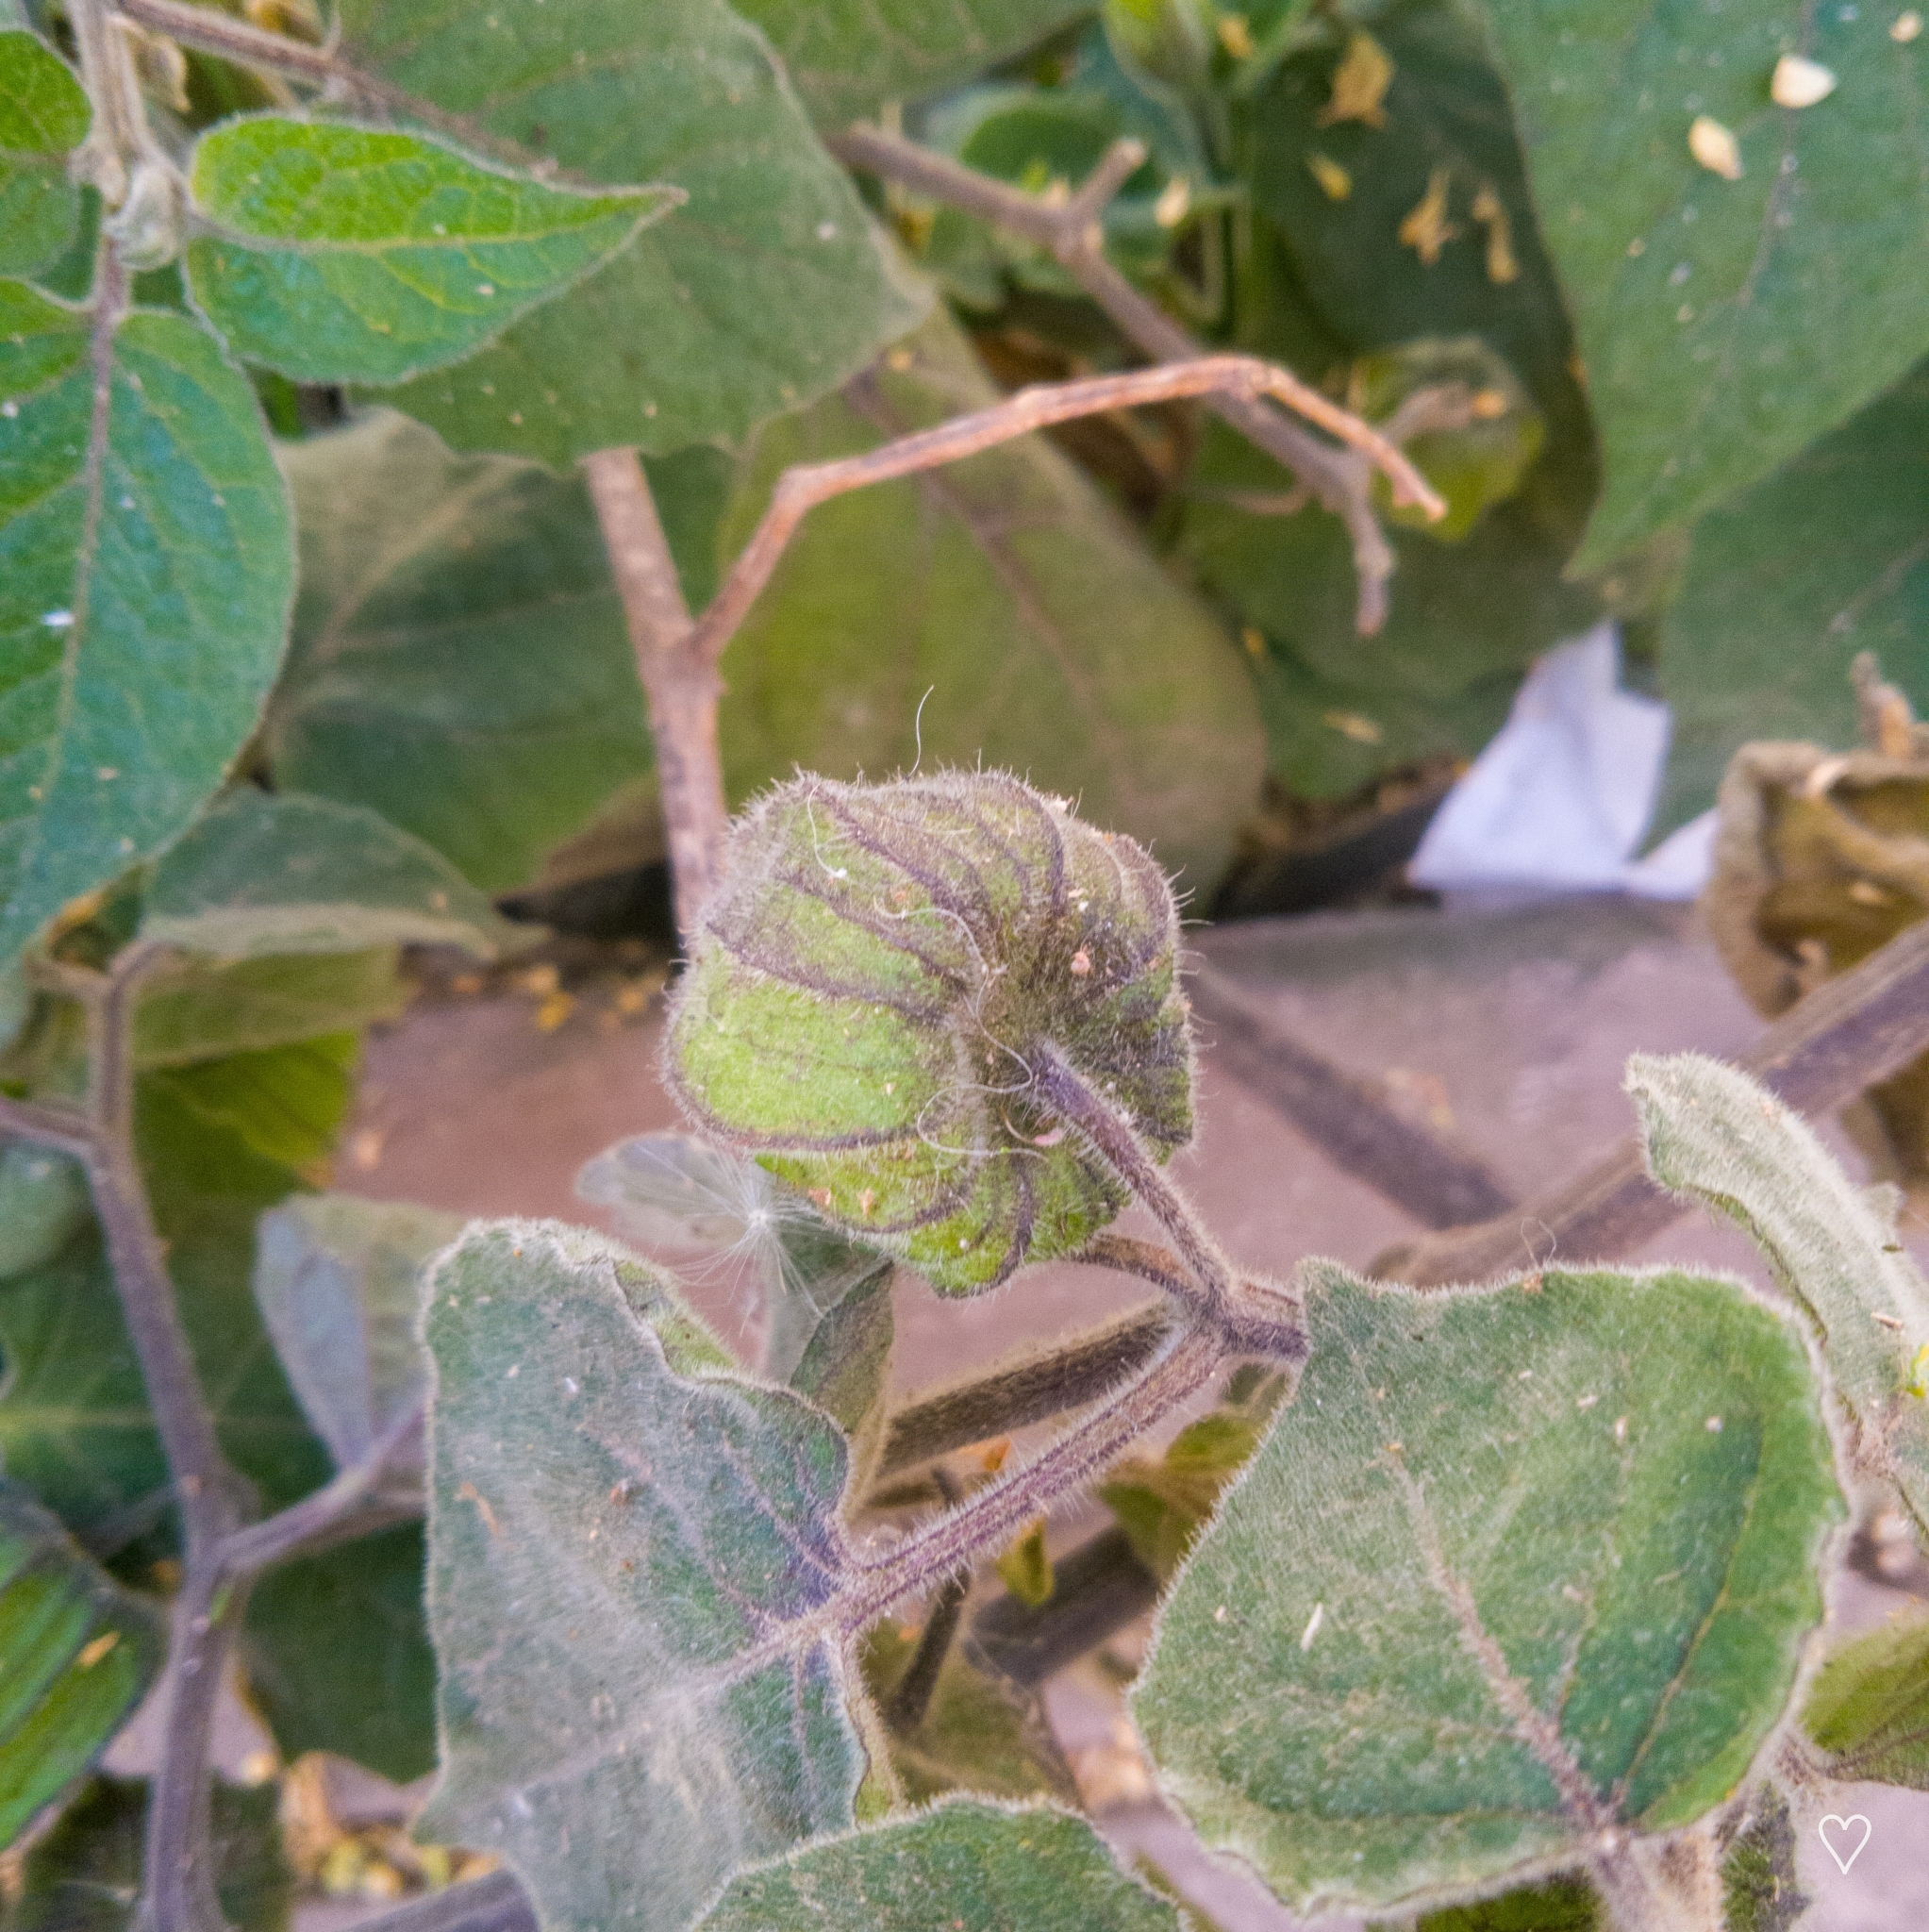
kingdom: Plantae
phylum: Tracheophyta
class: Magnoliopsida
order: Solanales
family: Solanaceae
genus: Physalis
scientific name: Physalis peruviana
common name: Cape-gooseberry
